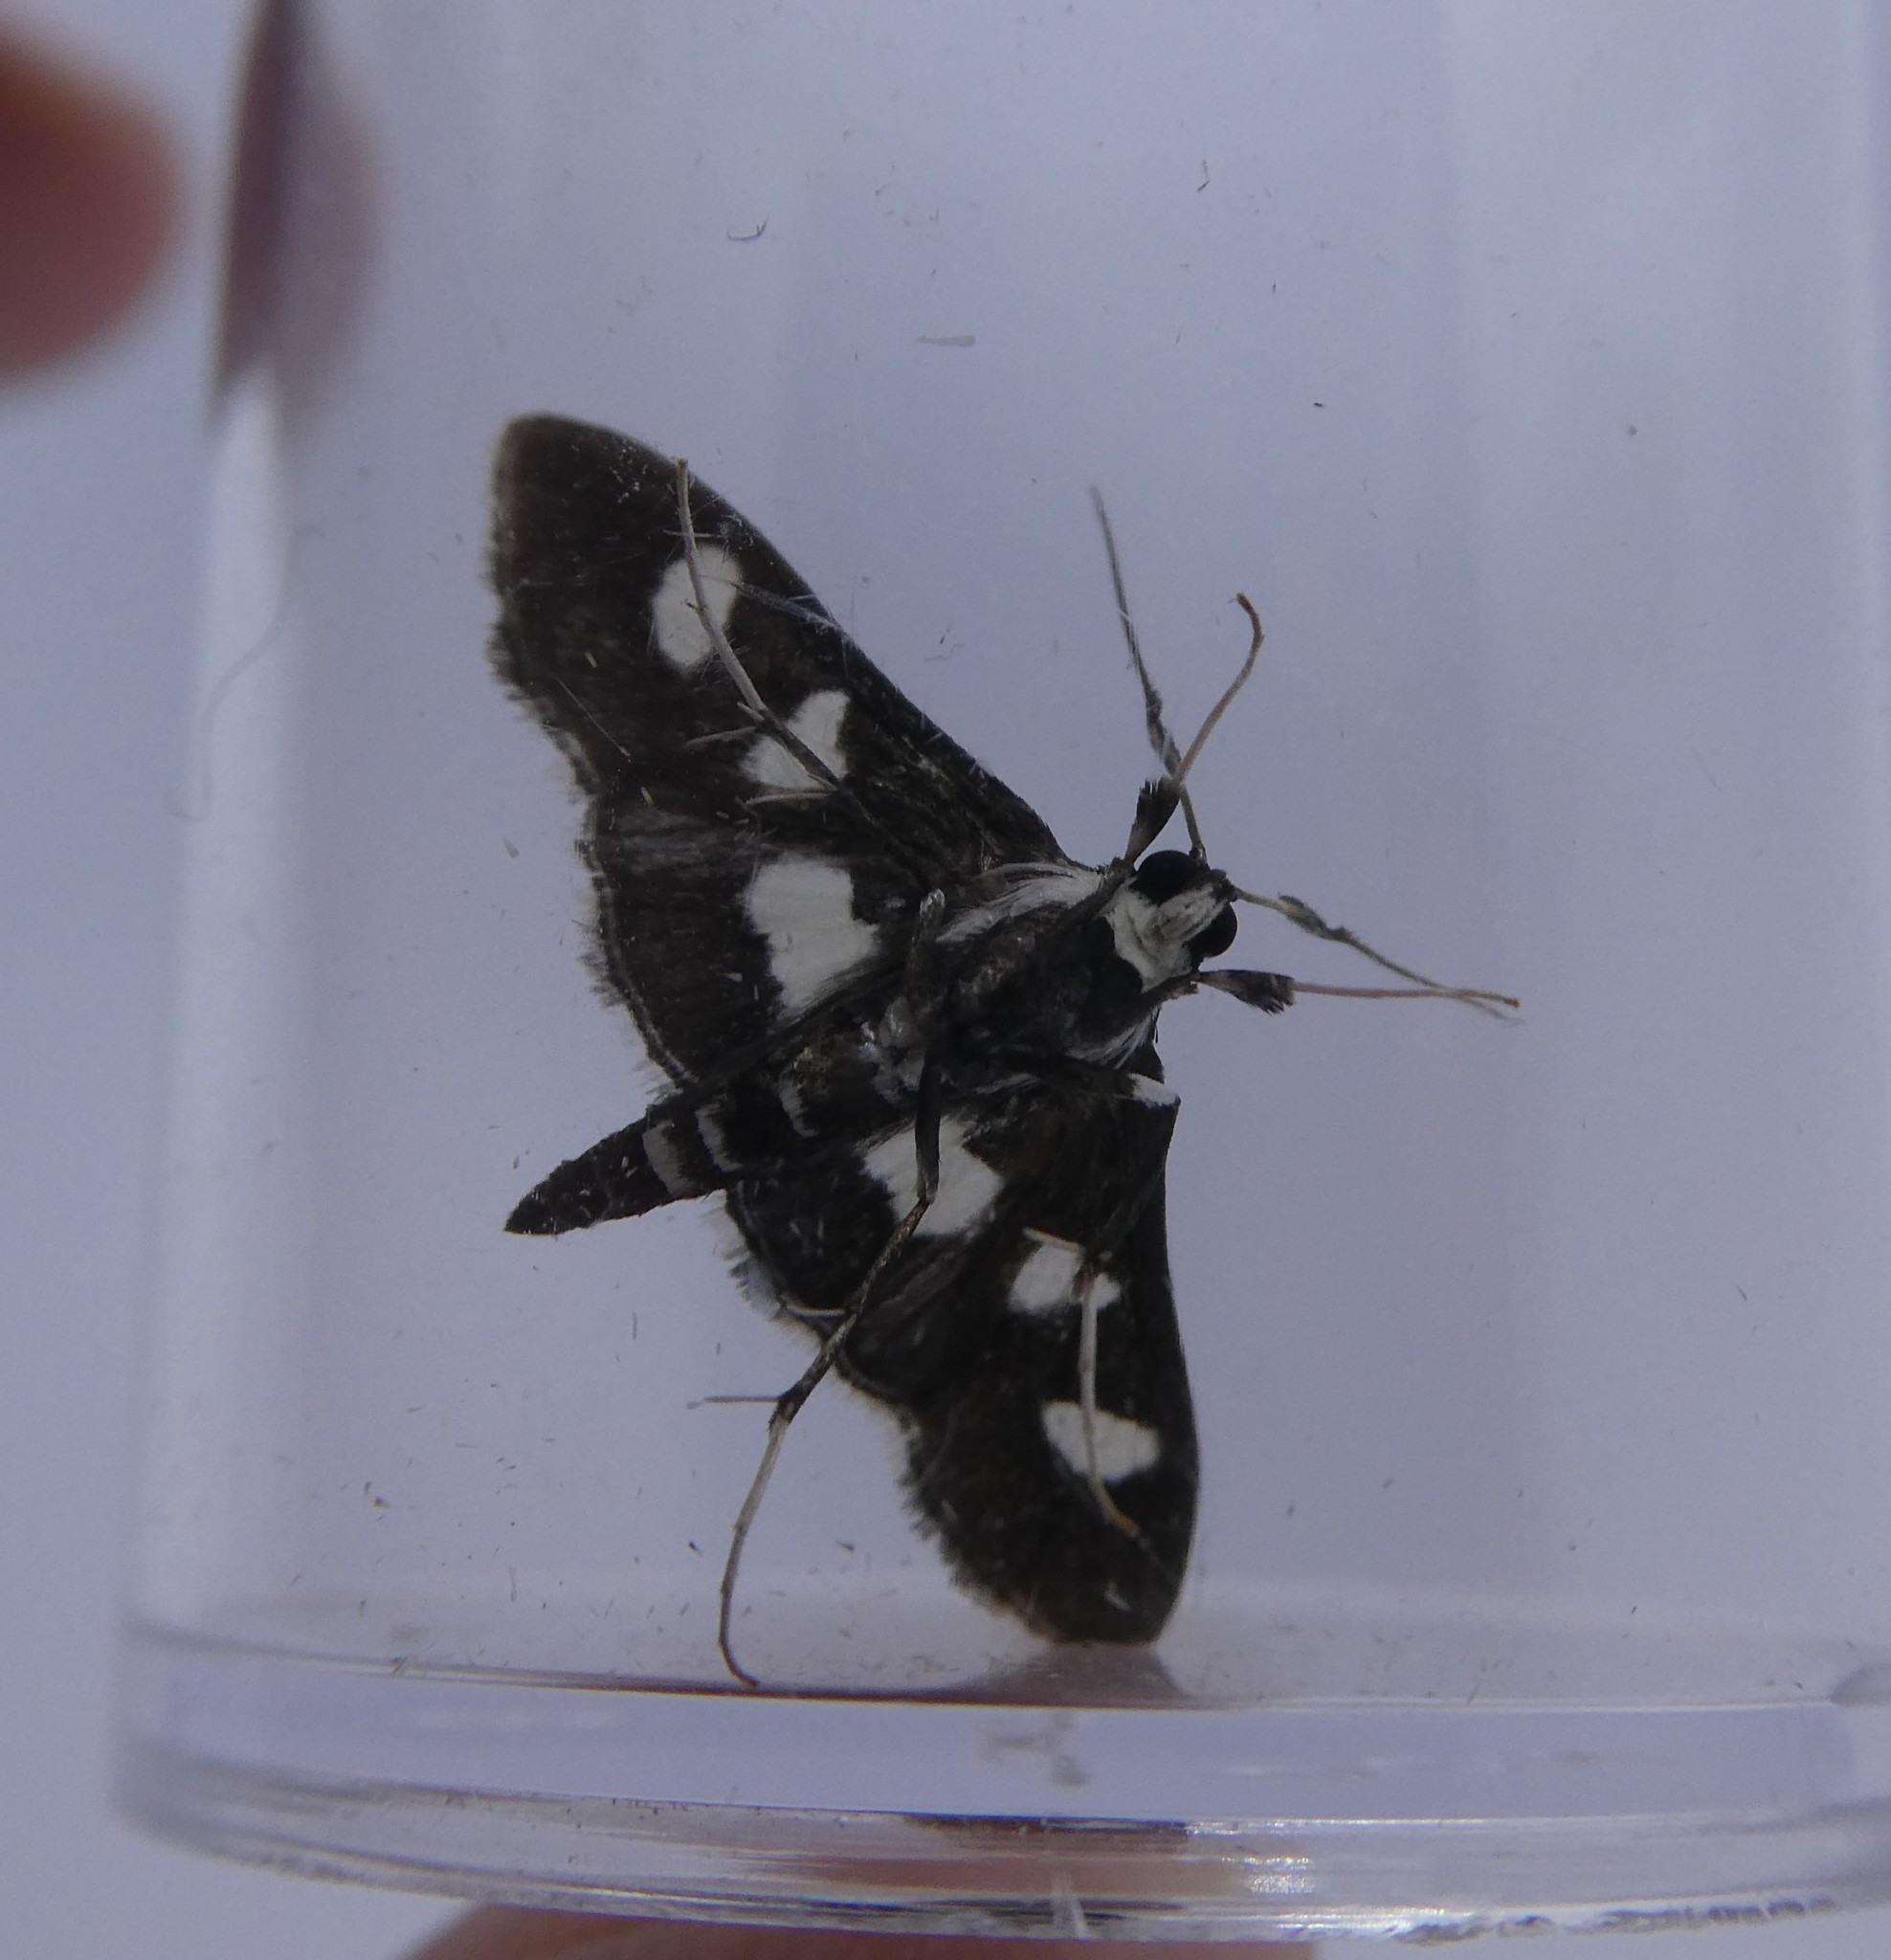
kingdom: Animalia
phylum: Arthropoda
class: Insecta
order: Lepidoptera
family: Crambidae
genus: Desmia
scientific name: Desmia funeralis
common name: Grape leaf folder moth
